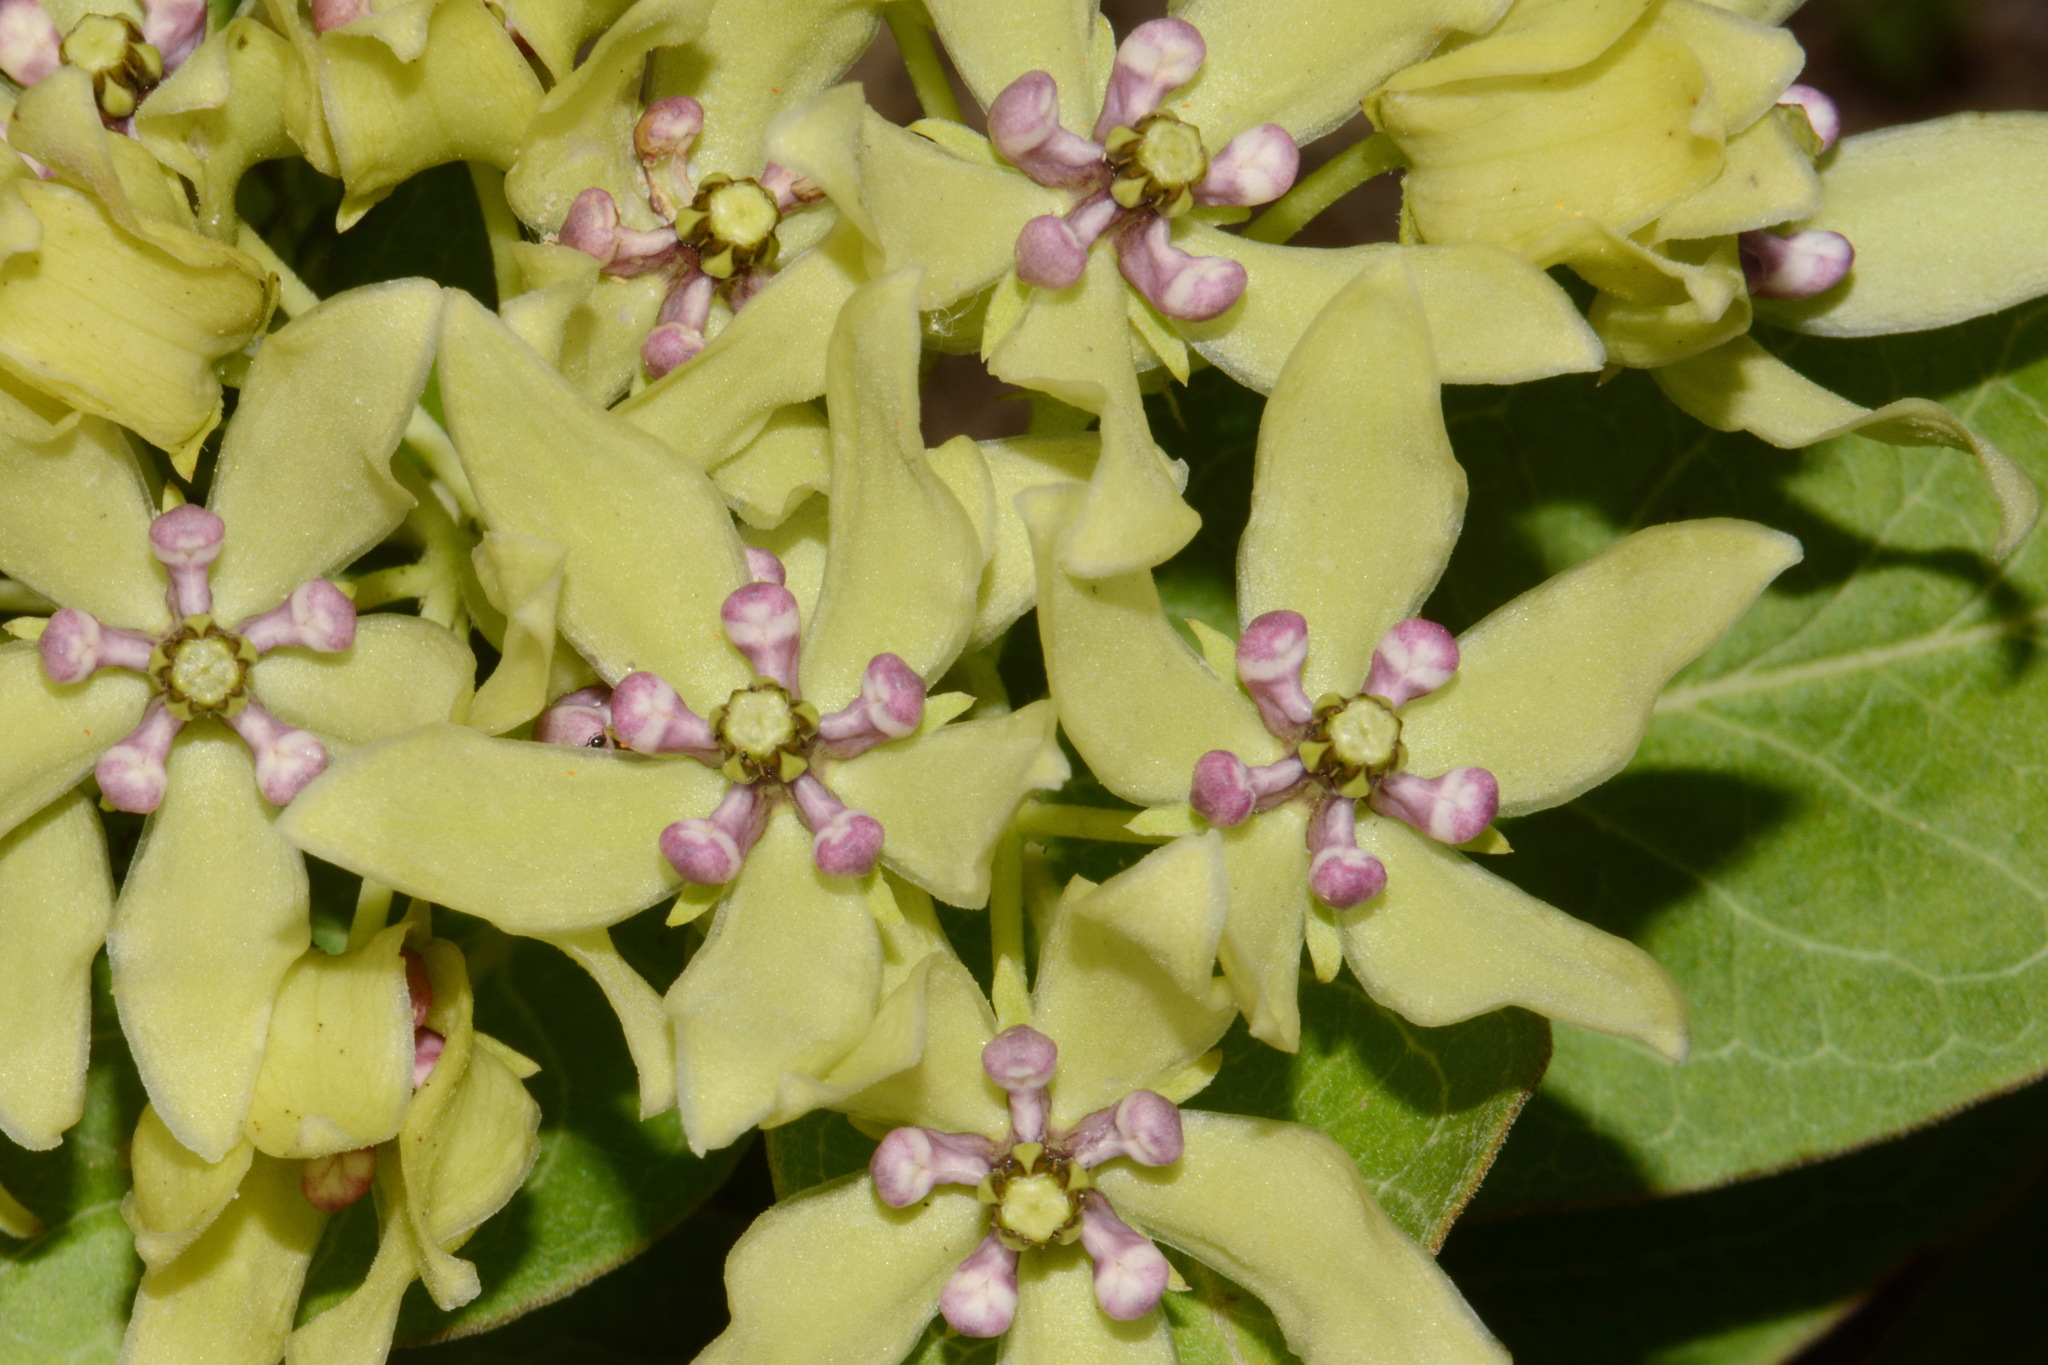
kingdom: Plantae
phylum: Tracheophyta
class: Magnoliopsida
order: Gentianales
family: Apocynaceae
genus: Asclepias
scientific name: Asclepias viridis
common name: Antelope-horns
